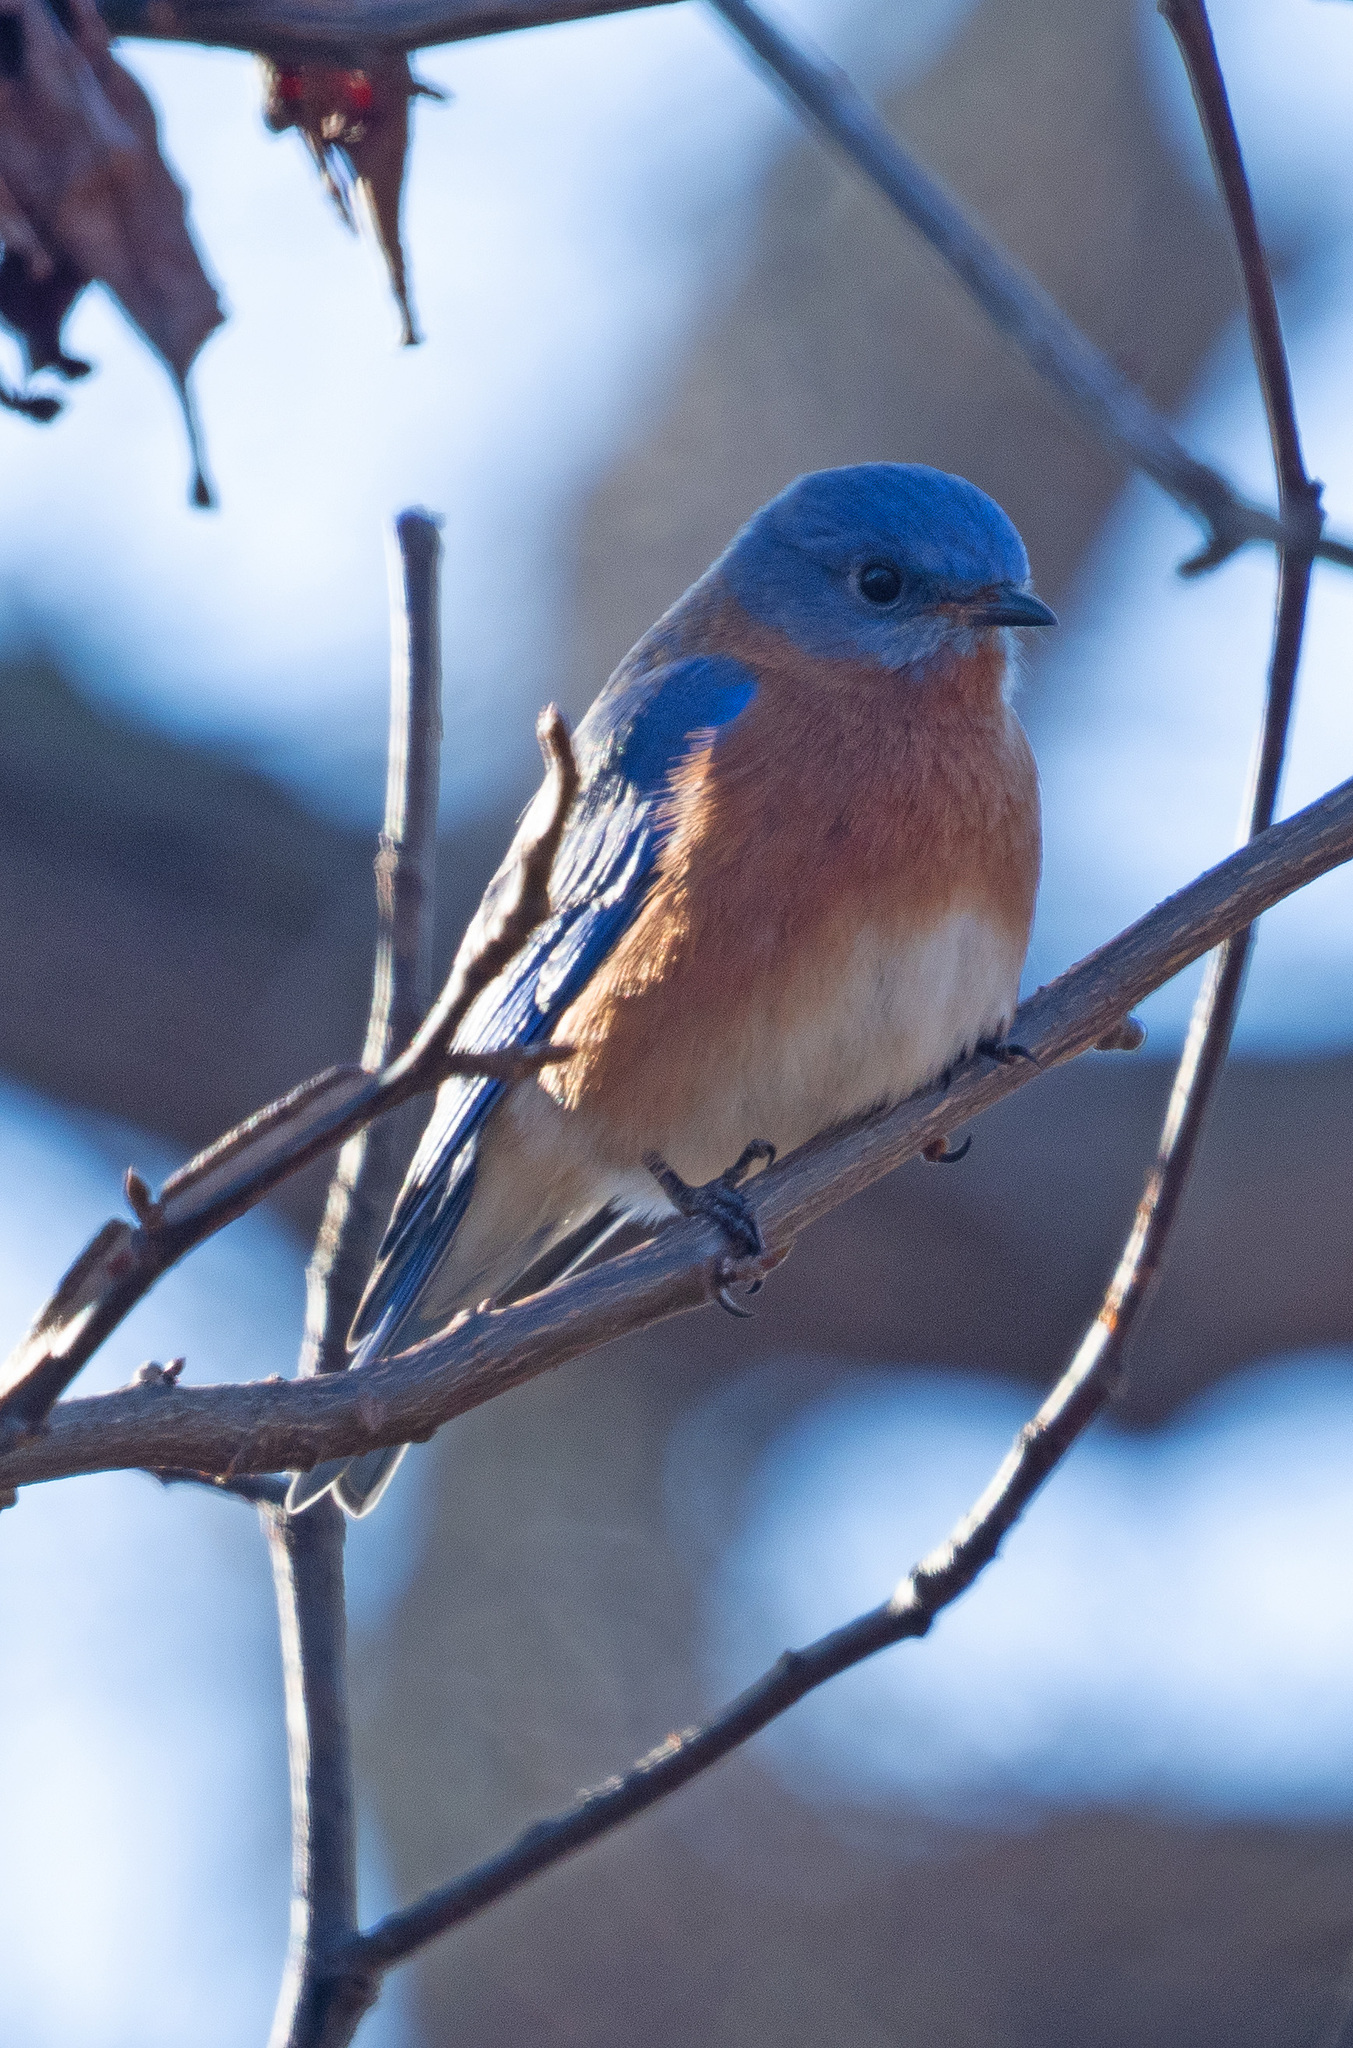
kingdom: Animalia
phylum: Chordata
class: Aves
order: Passeriformes
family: Turdidae
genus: Sialia
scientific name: Sialia sialis
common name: Eastern bluebird
